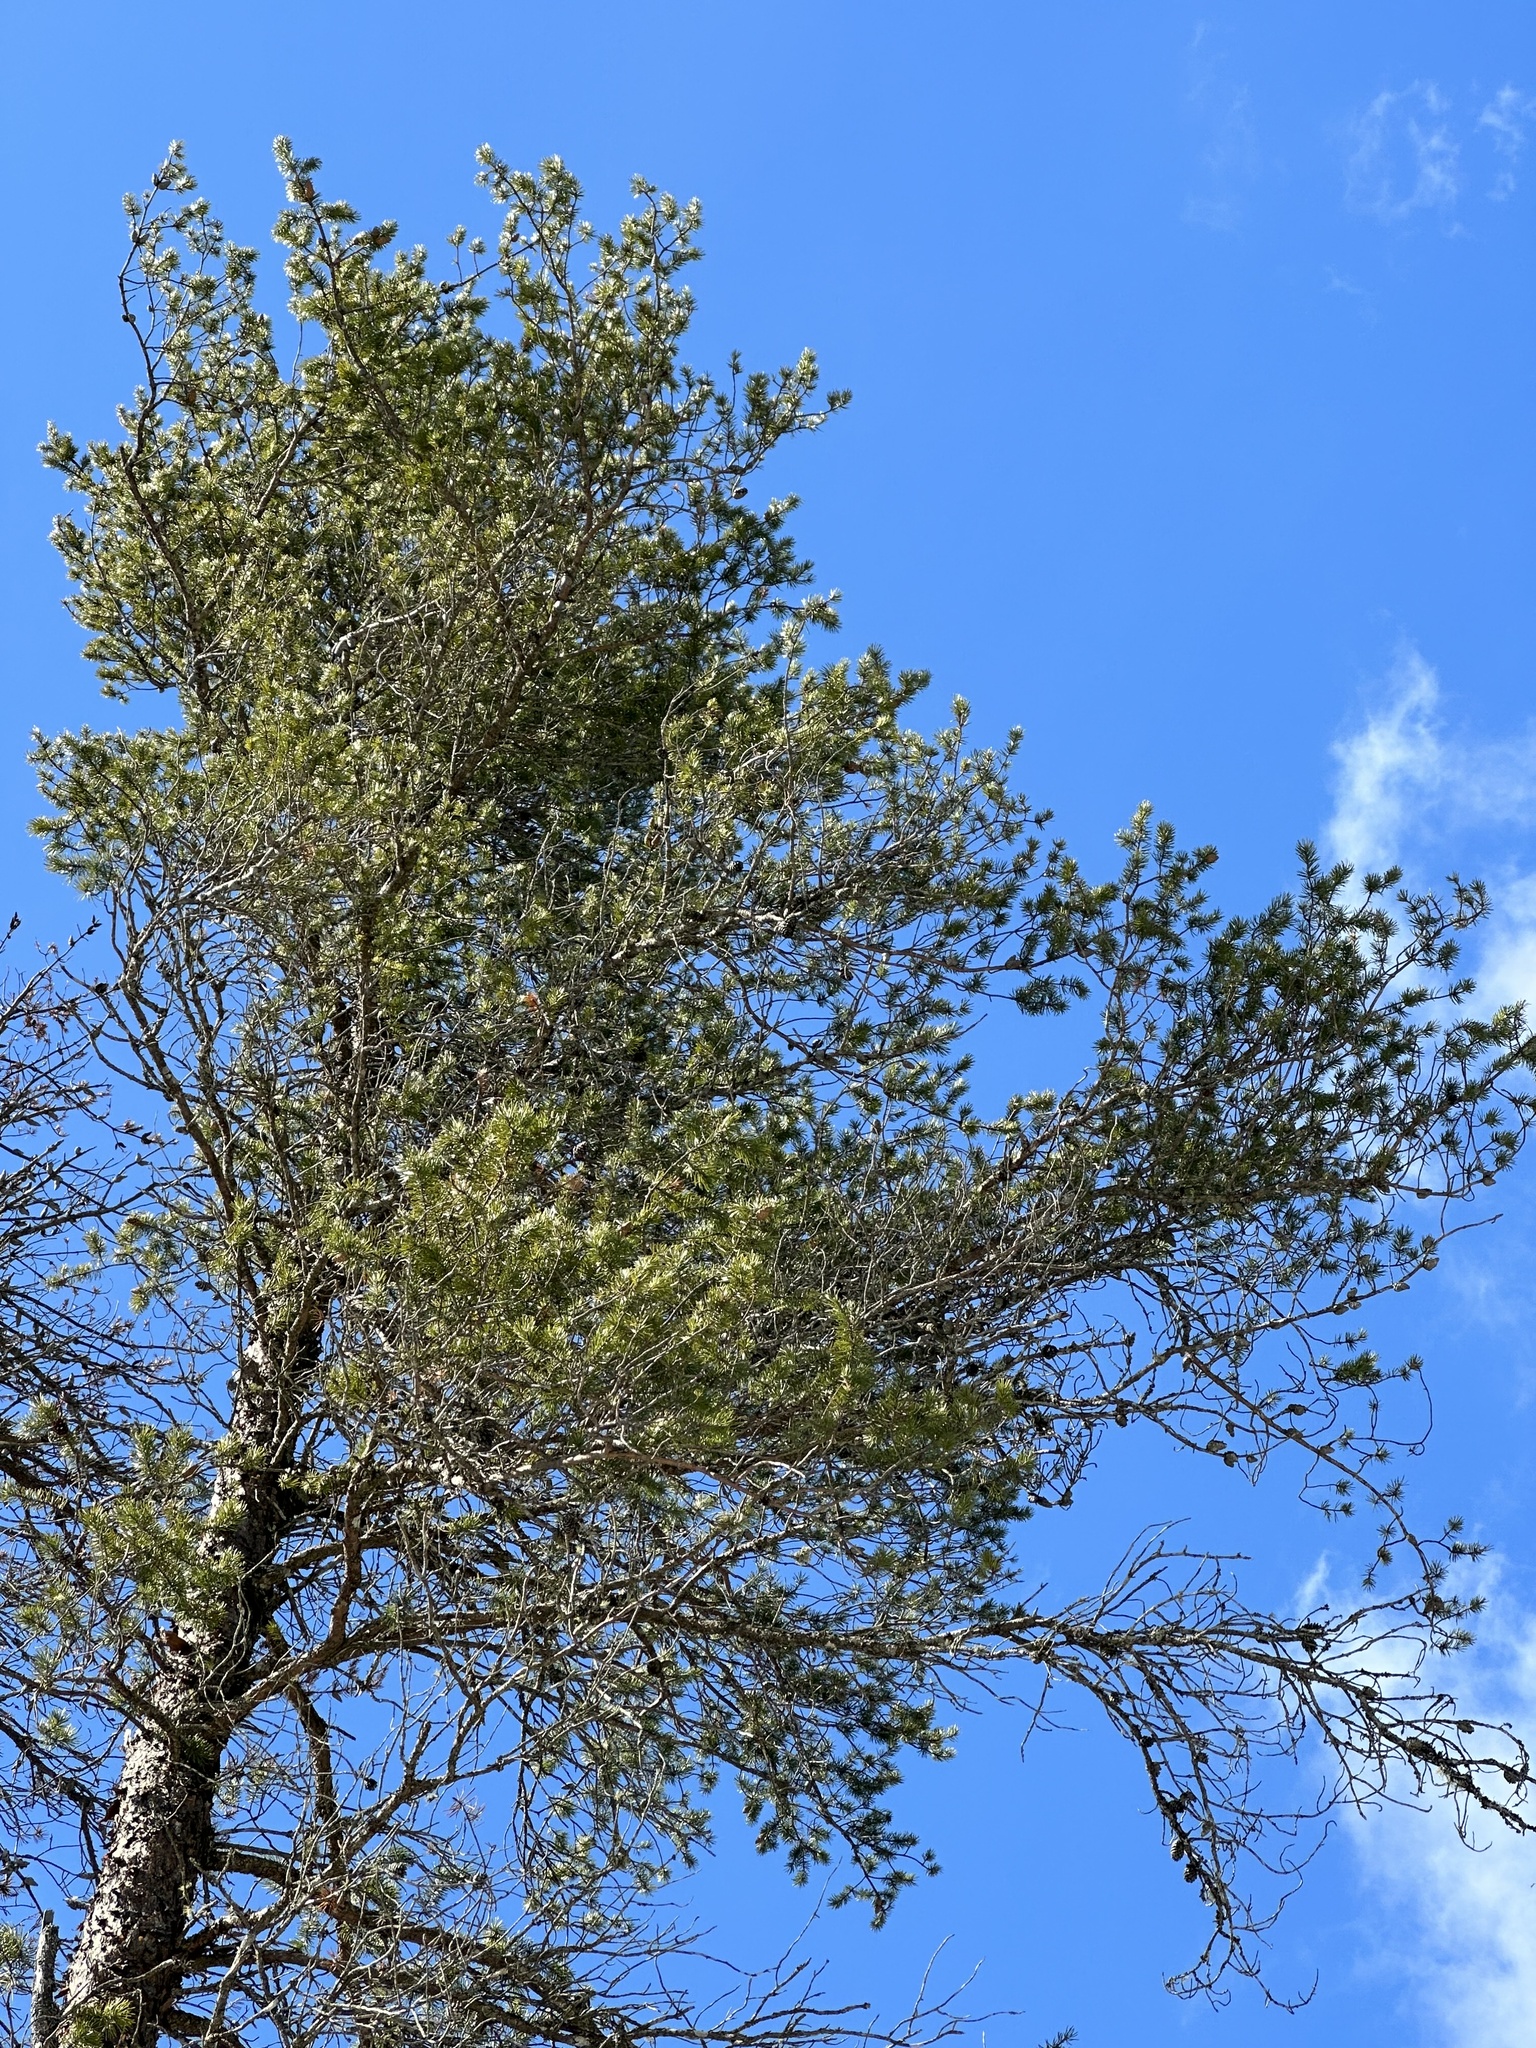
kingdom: Plantae
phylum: Tracheophyta
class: Pinopsida
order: Pinales
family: Pinaceae
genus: Pinus
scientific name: Pinus banksiana
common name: Jack pine
